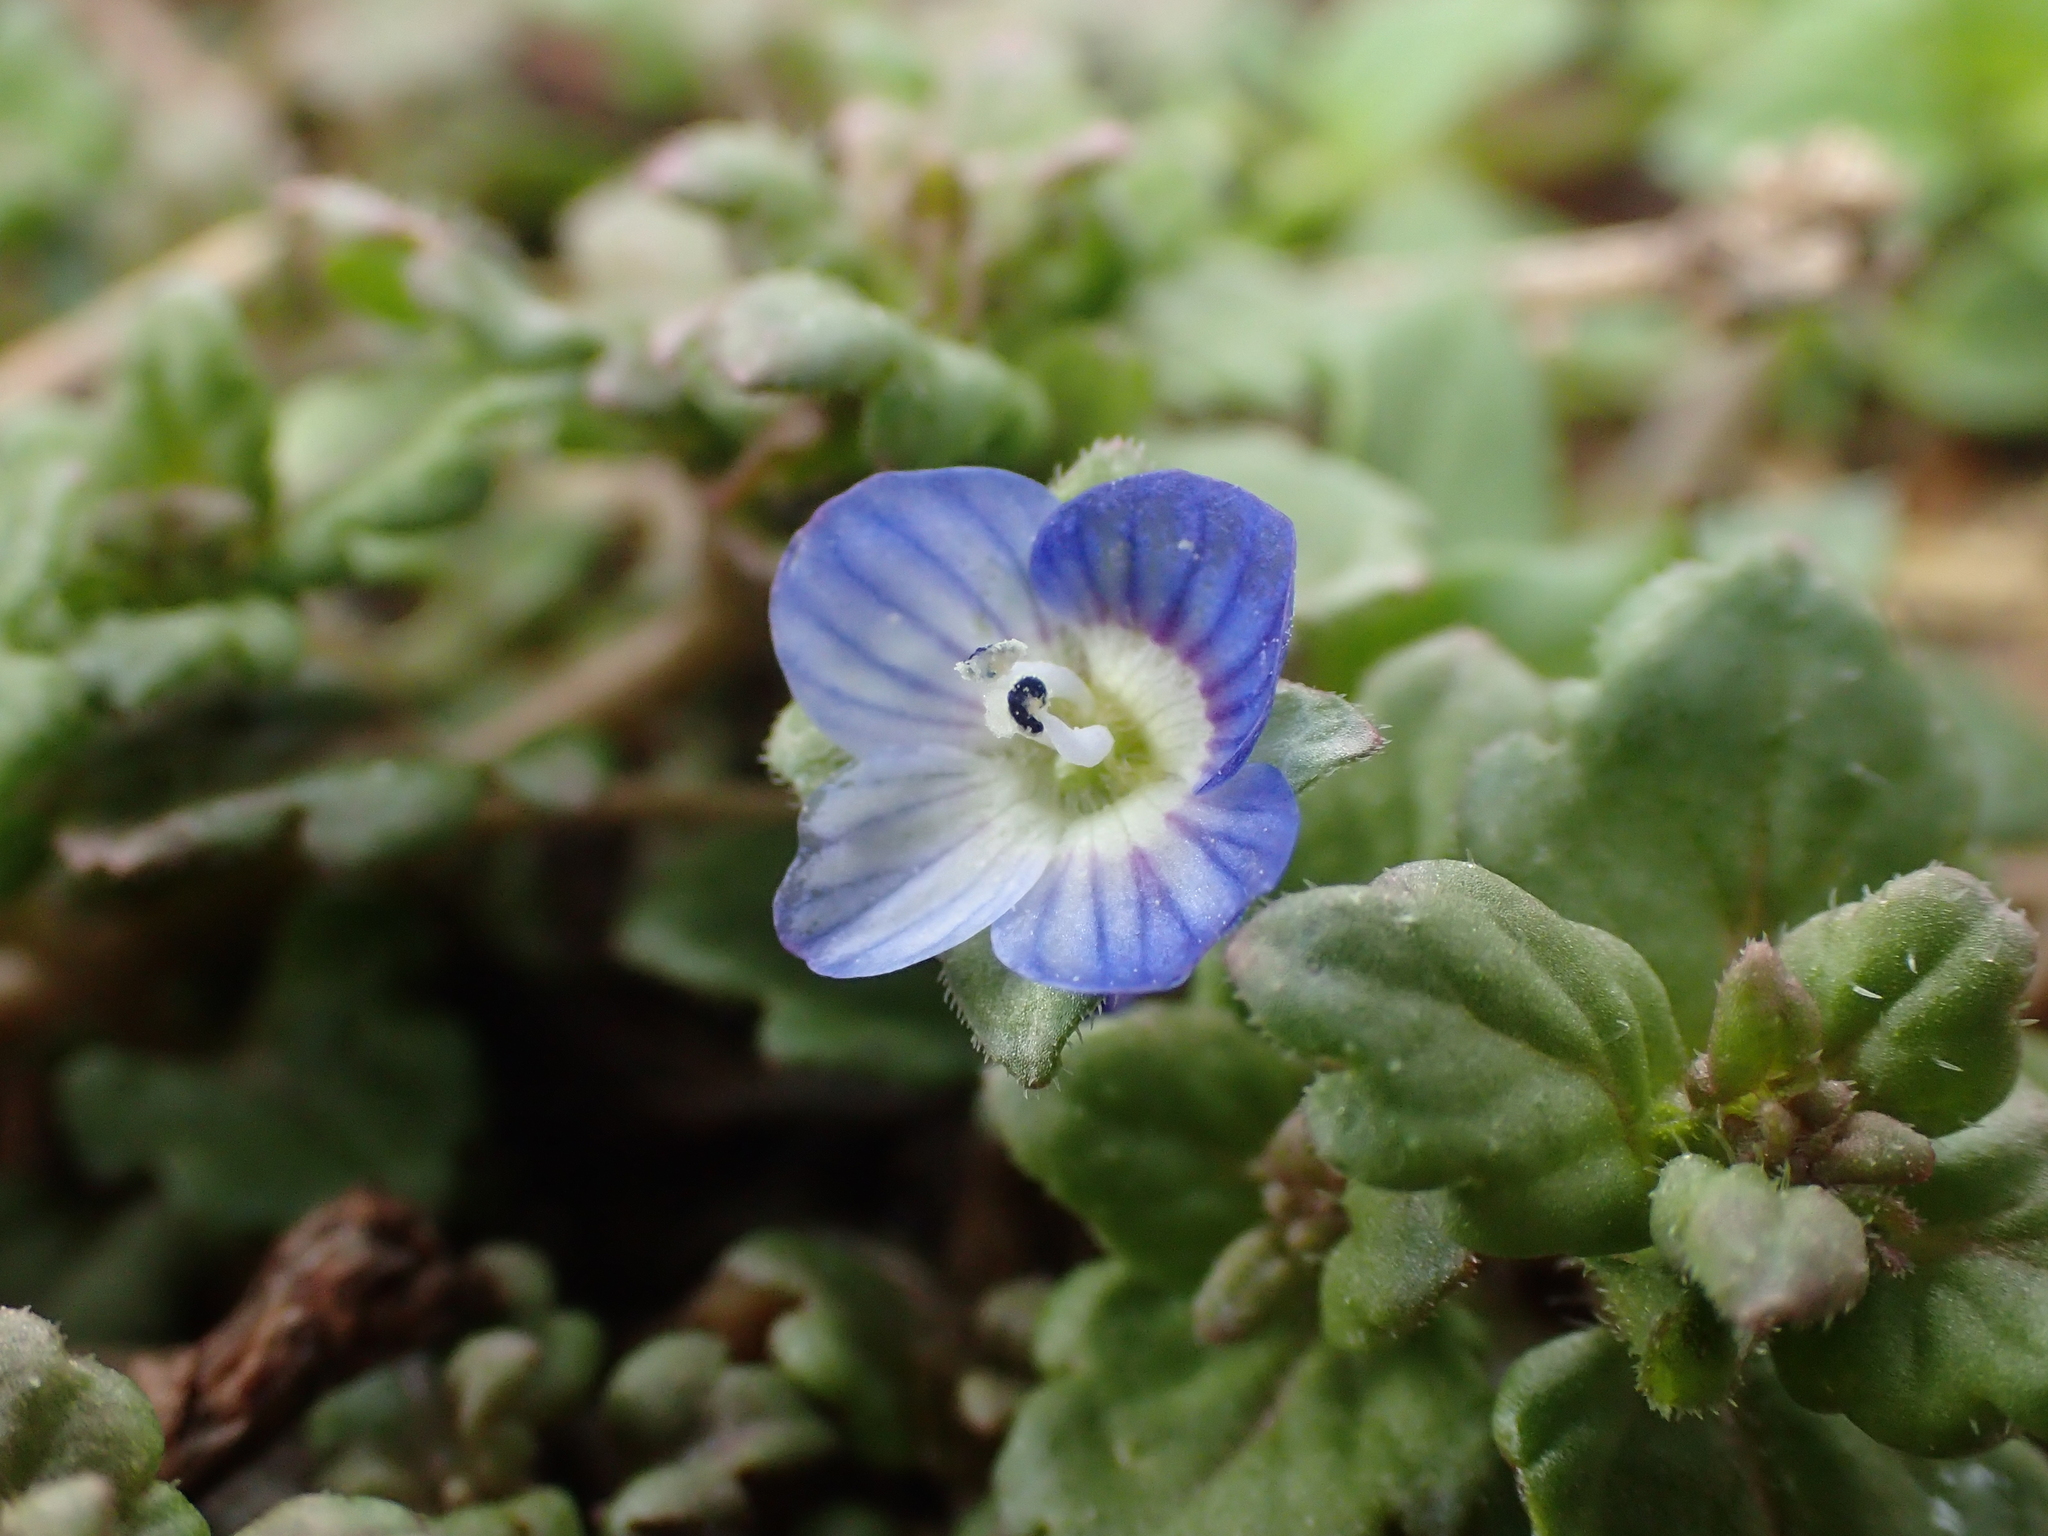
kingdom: Plantae
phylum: Tracheophyta
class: Magnoliopsida
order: Lamiales
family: Plantaginaceae
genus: Veronica
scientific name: Veronica polita
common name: Grey field-speedwell
